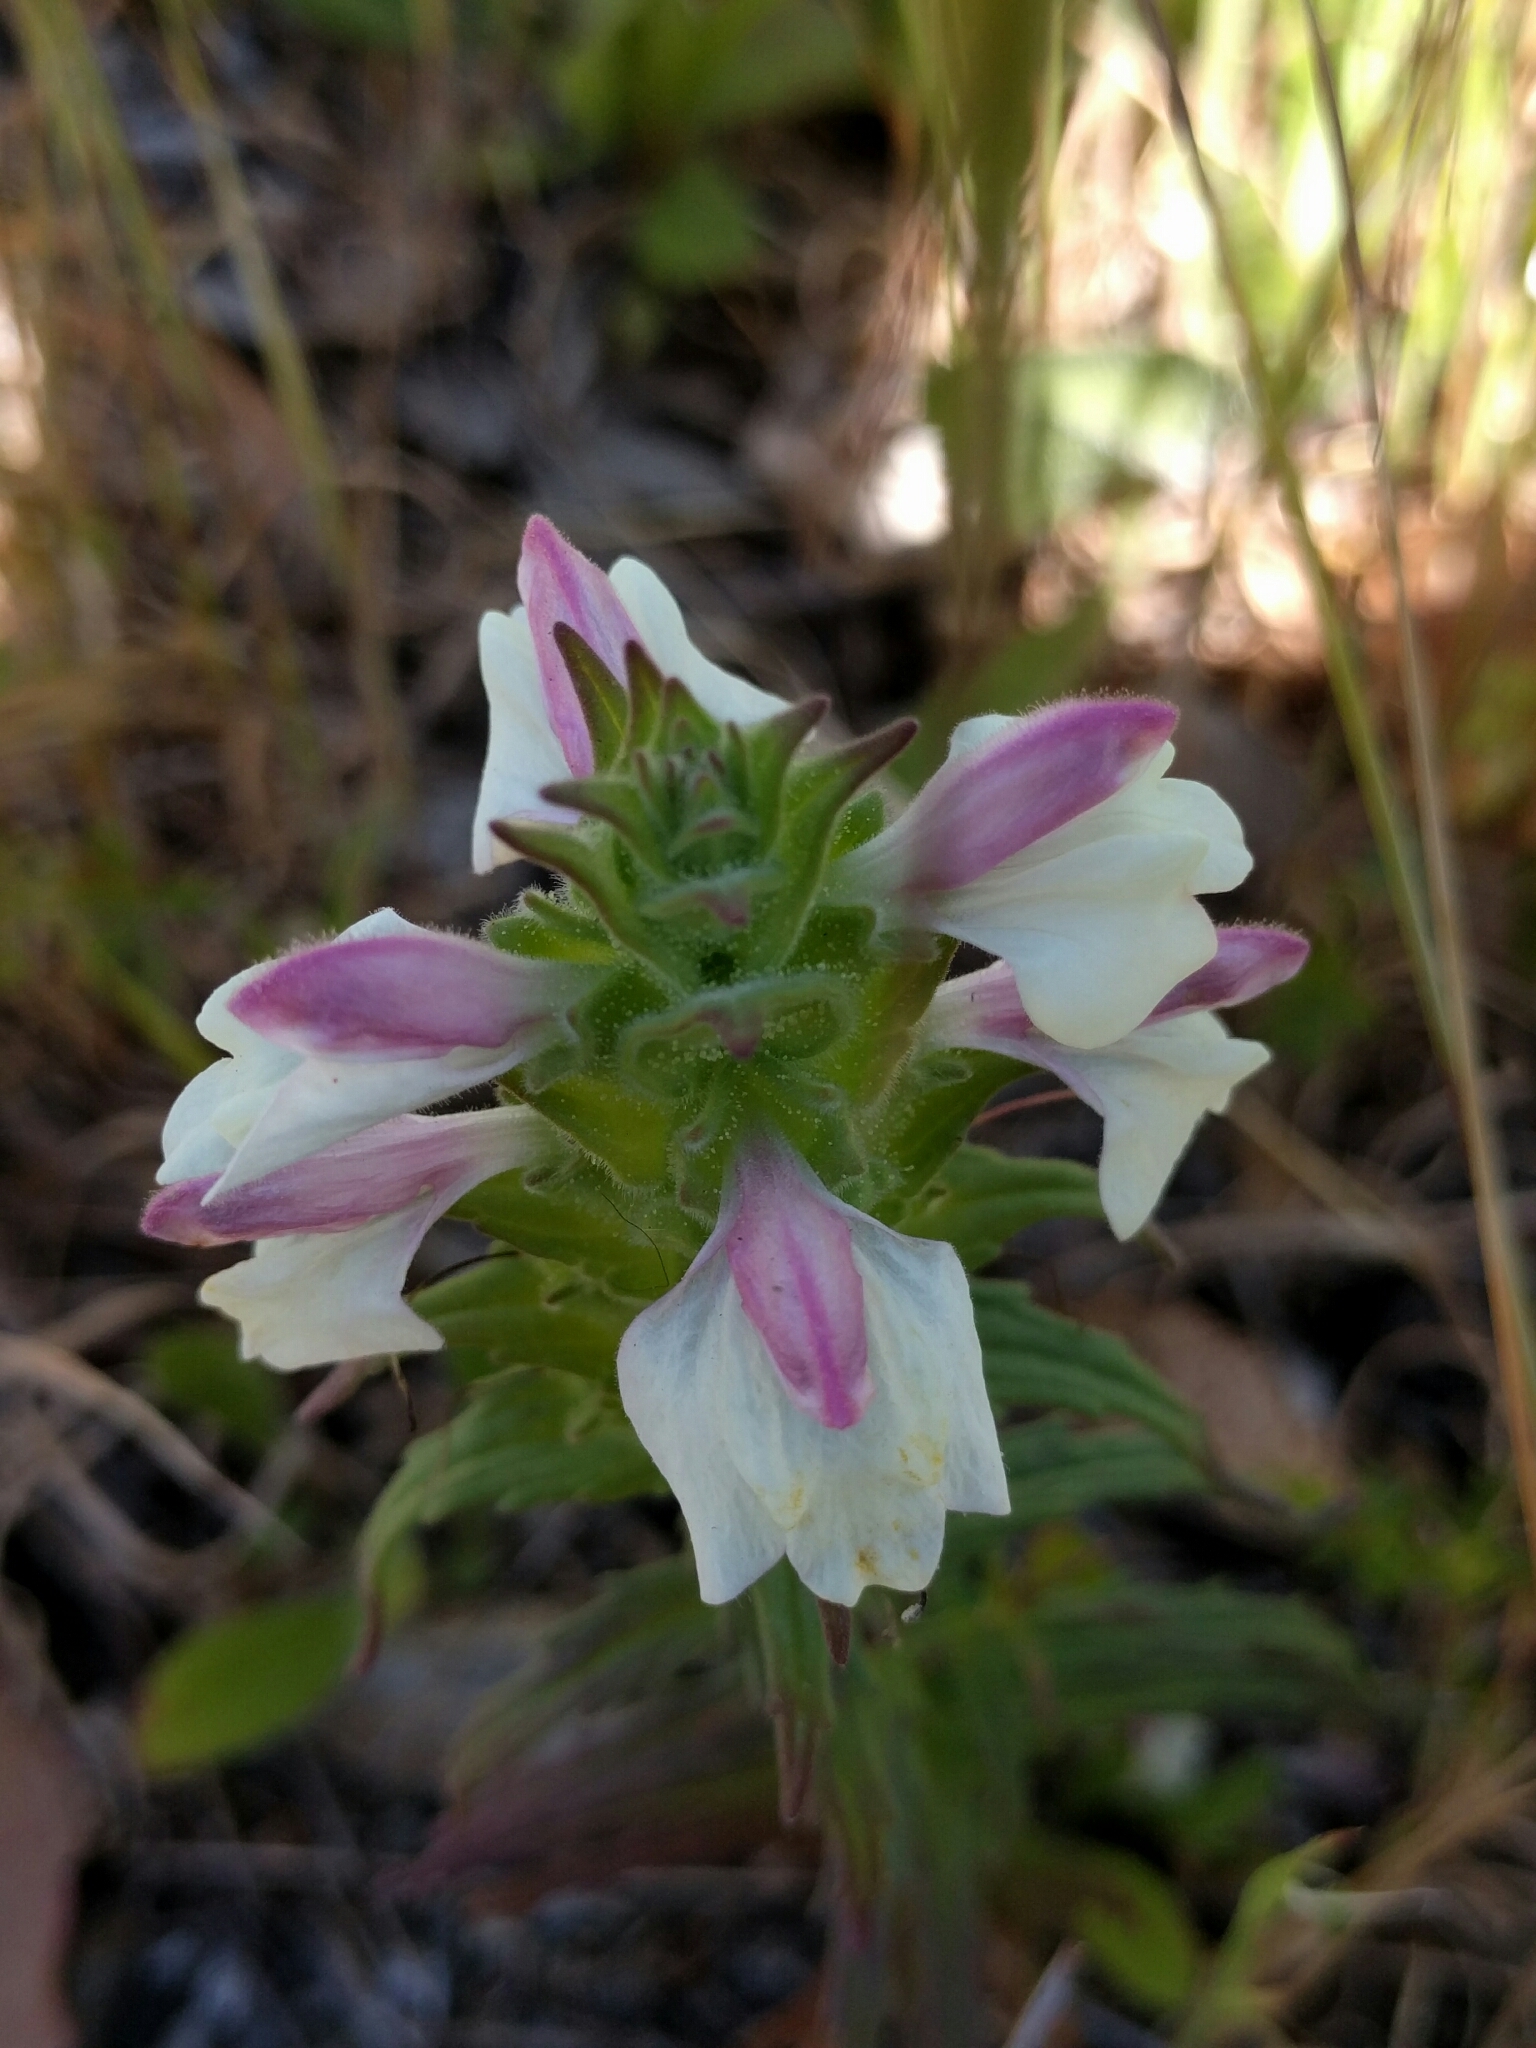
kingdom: Plantae
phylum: Tracheophyta
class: Magnoliopsida
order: Lamiales
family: Orobanchaceae
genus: Bellardia
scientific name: Bellardia trixago
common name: Mediterranean lineseed
